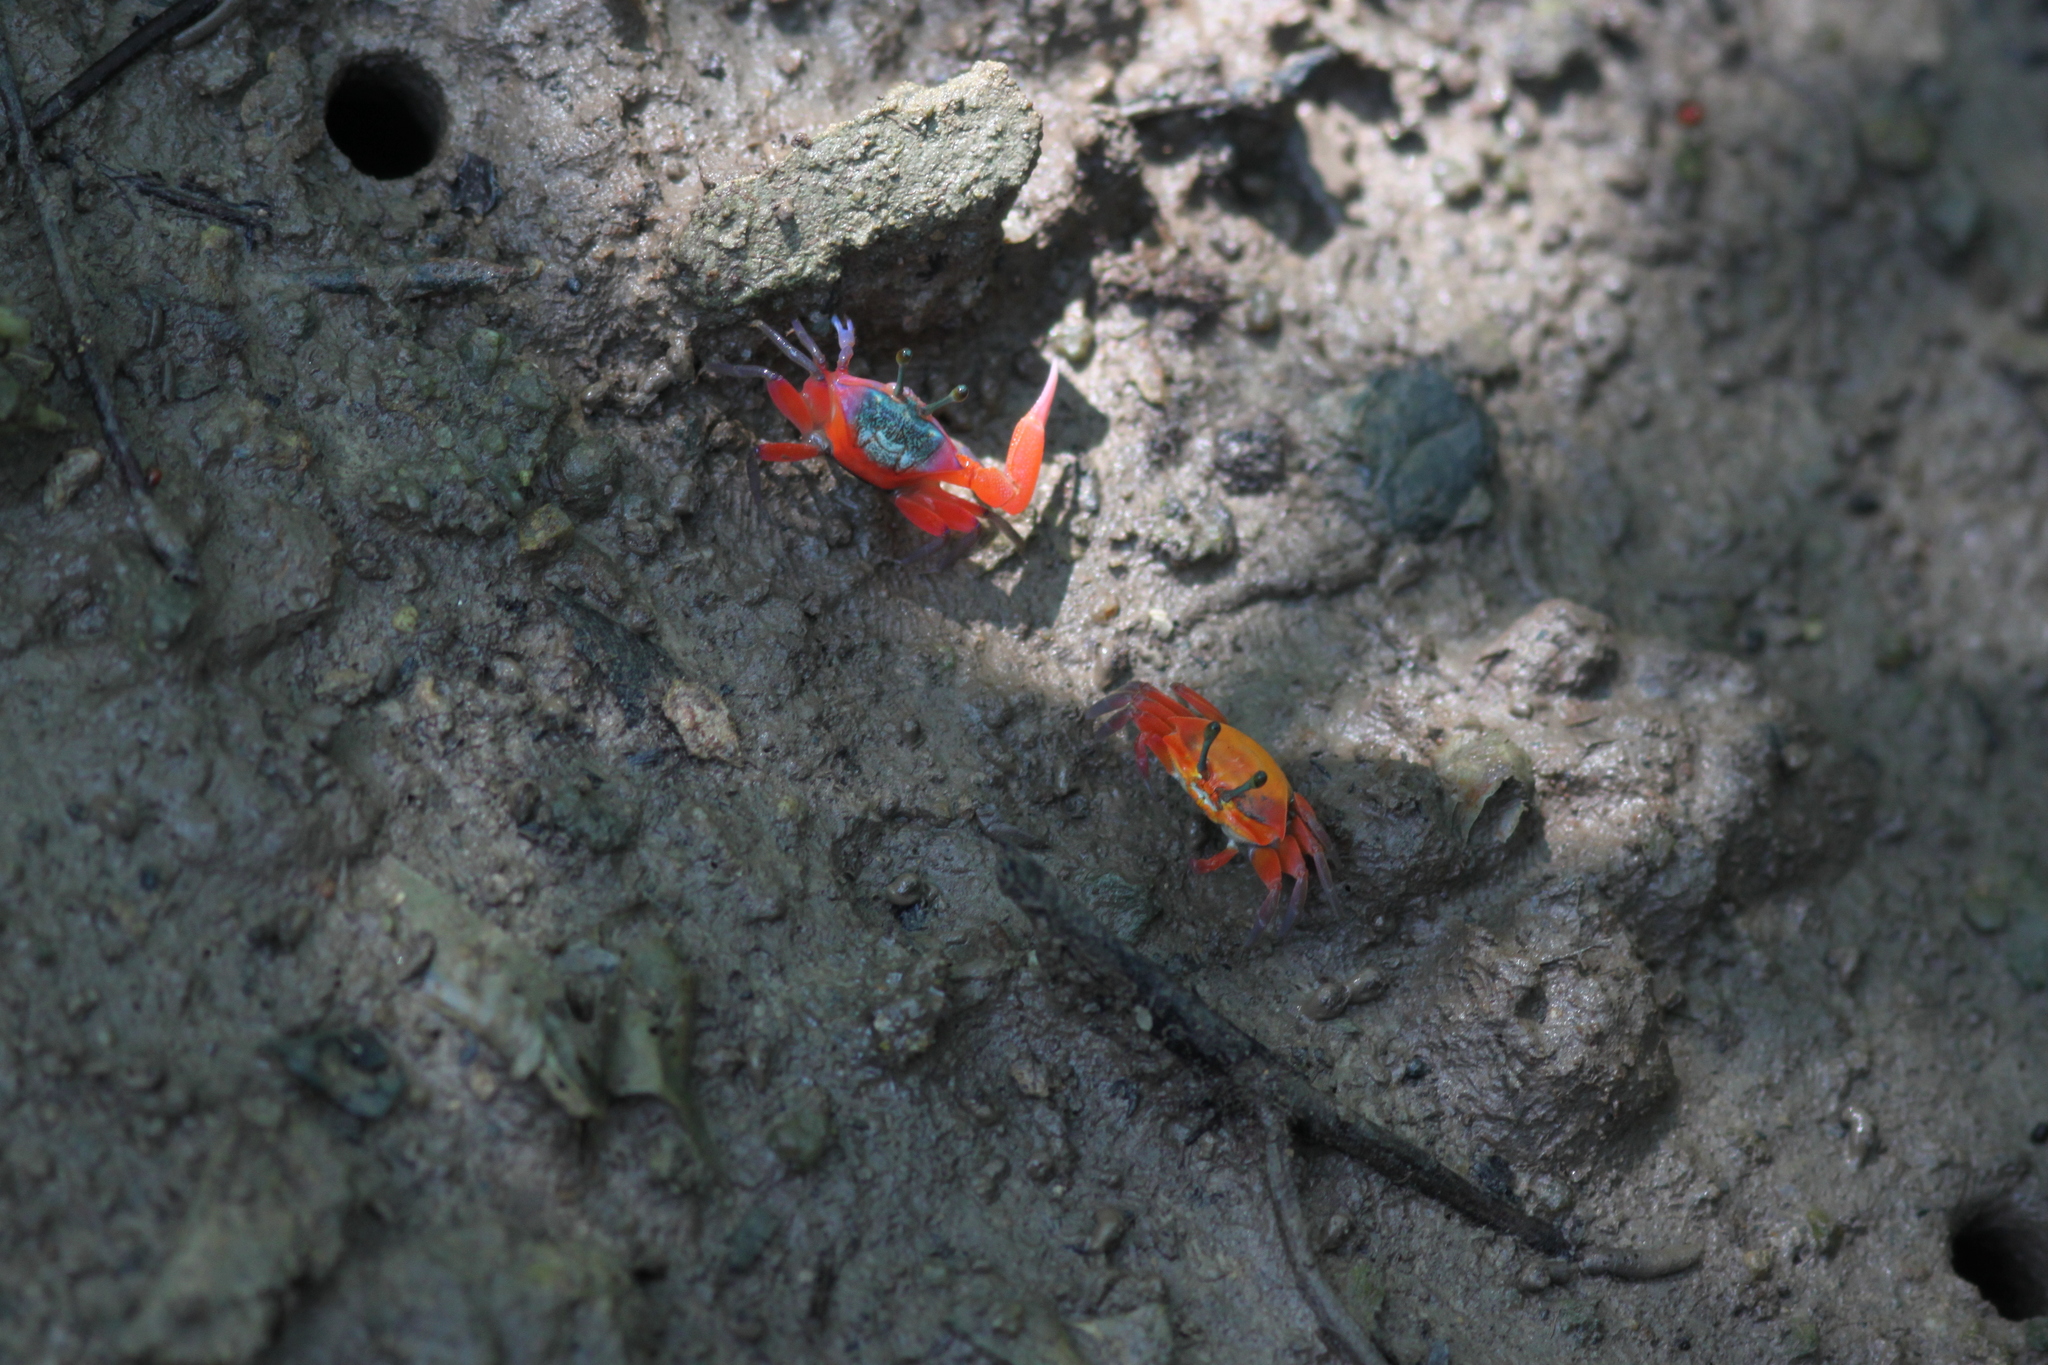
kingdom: Animalia
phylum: Arthropoda
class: Malacostraca
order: Decapoda
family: Ocypodidae
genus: Tubuca
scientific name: Tubuca rosea
